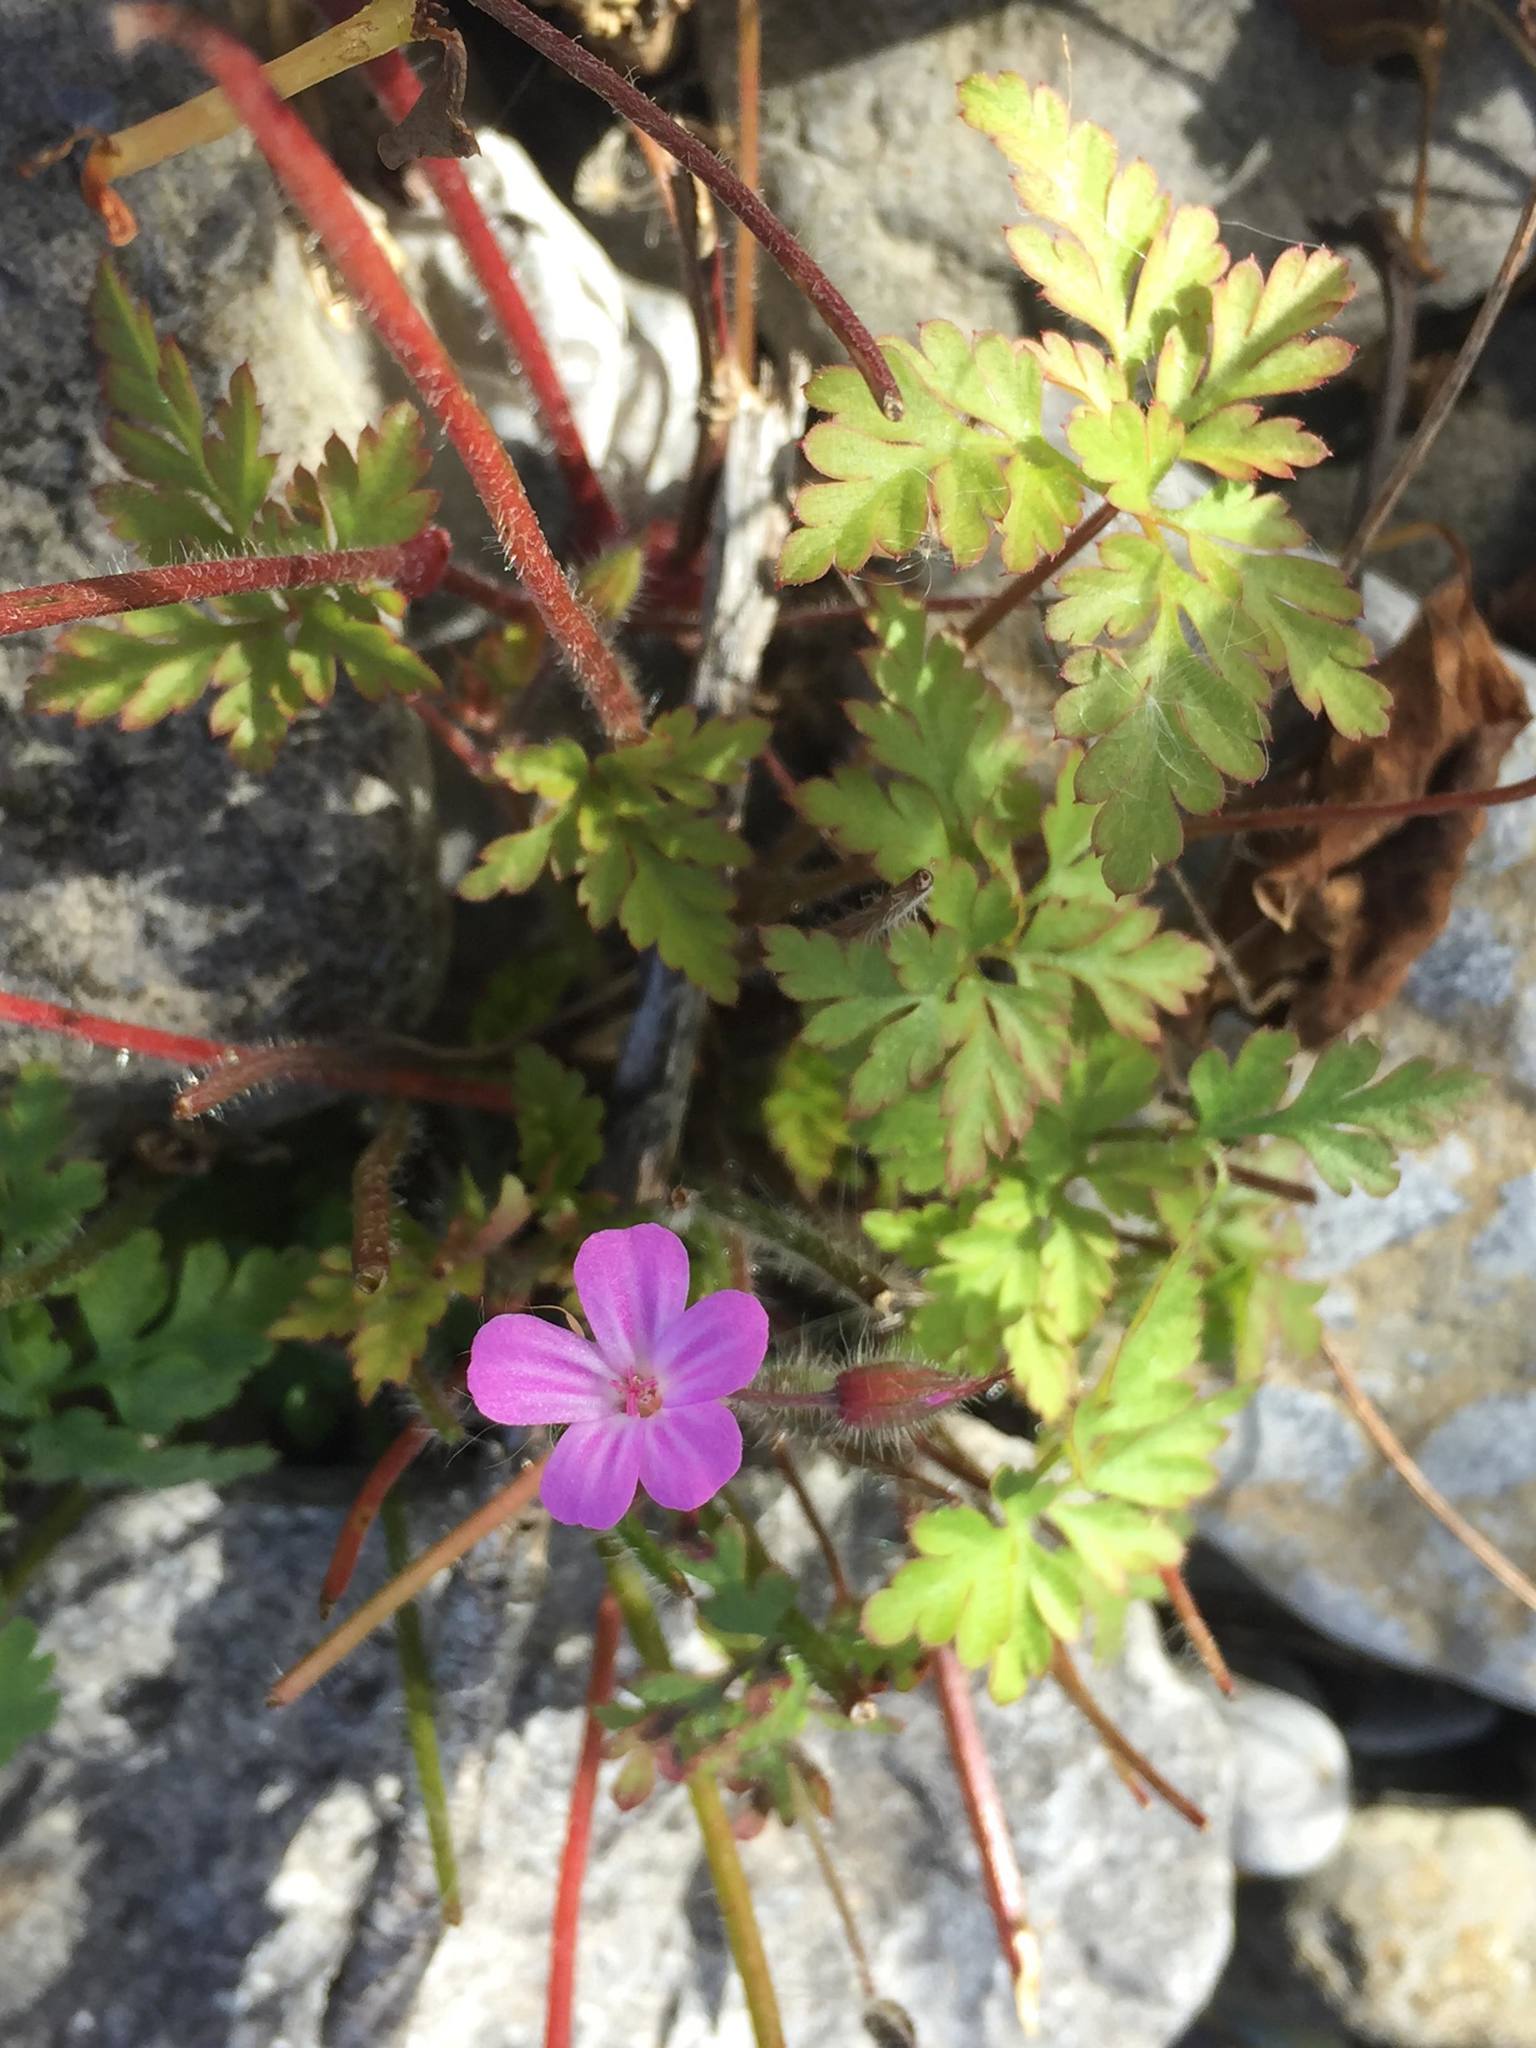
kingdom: Plantae
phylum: Tracheophyta
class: Magnoliopsida
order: Geraniales
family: Geraniaceae
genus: Geranium
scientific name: Geranium robertianum
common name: Herb-robert
